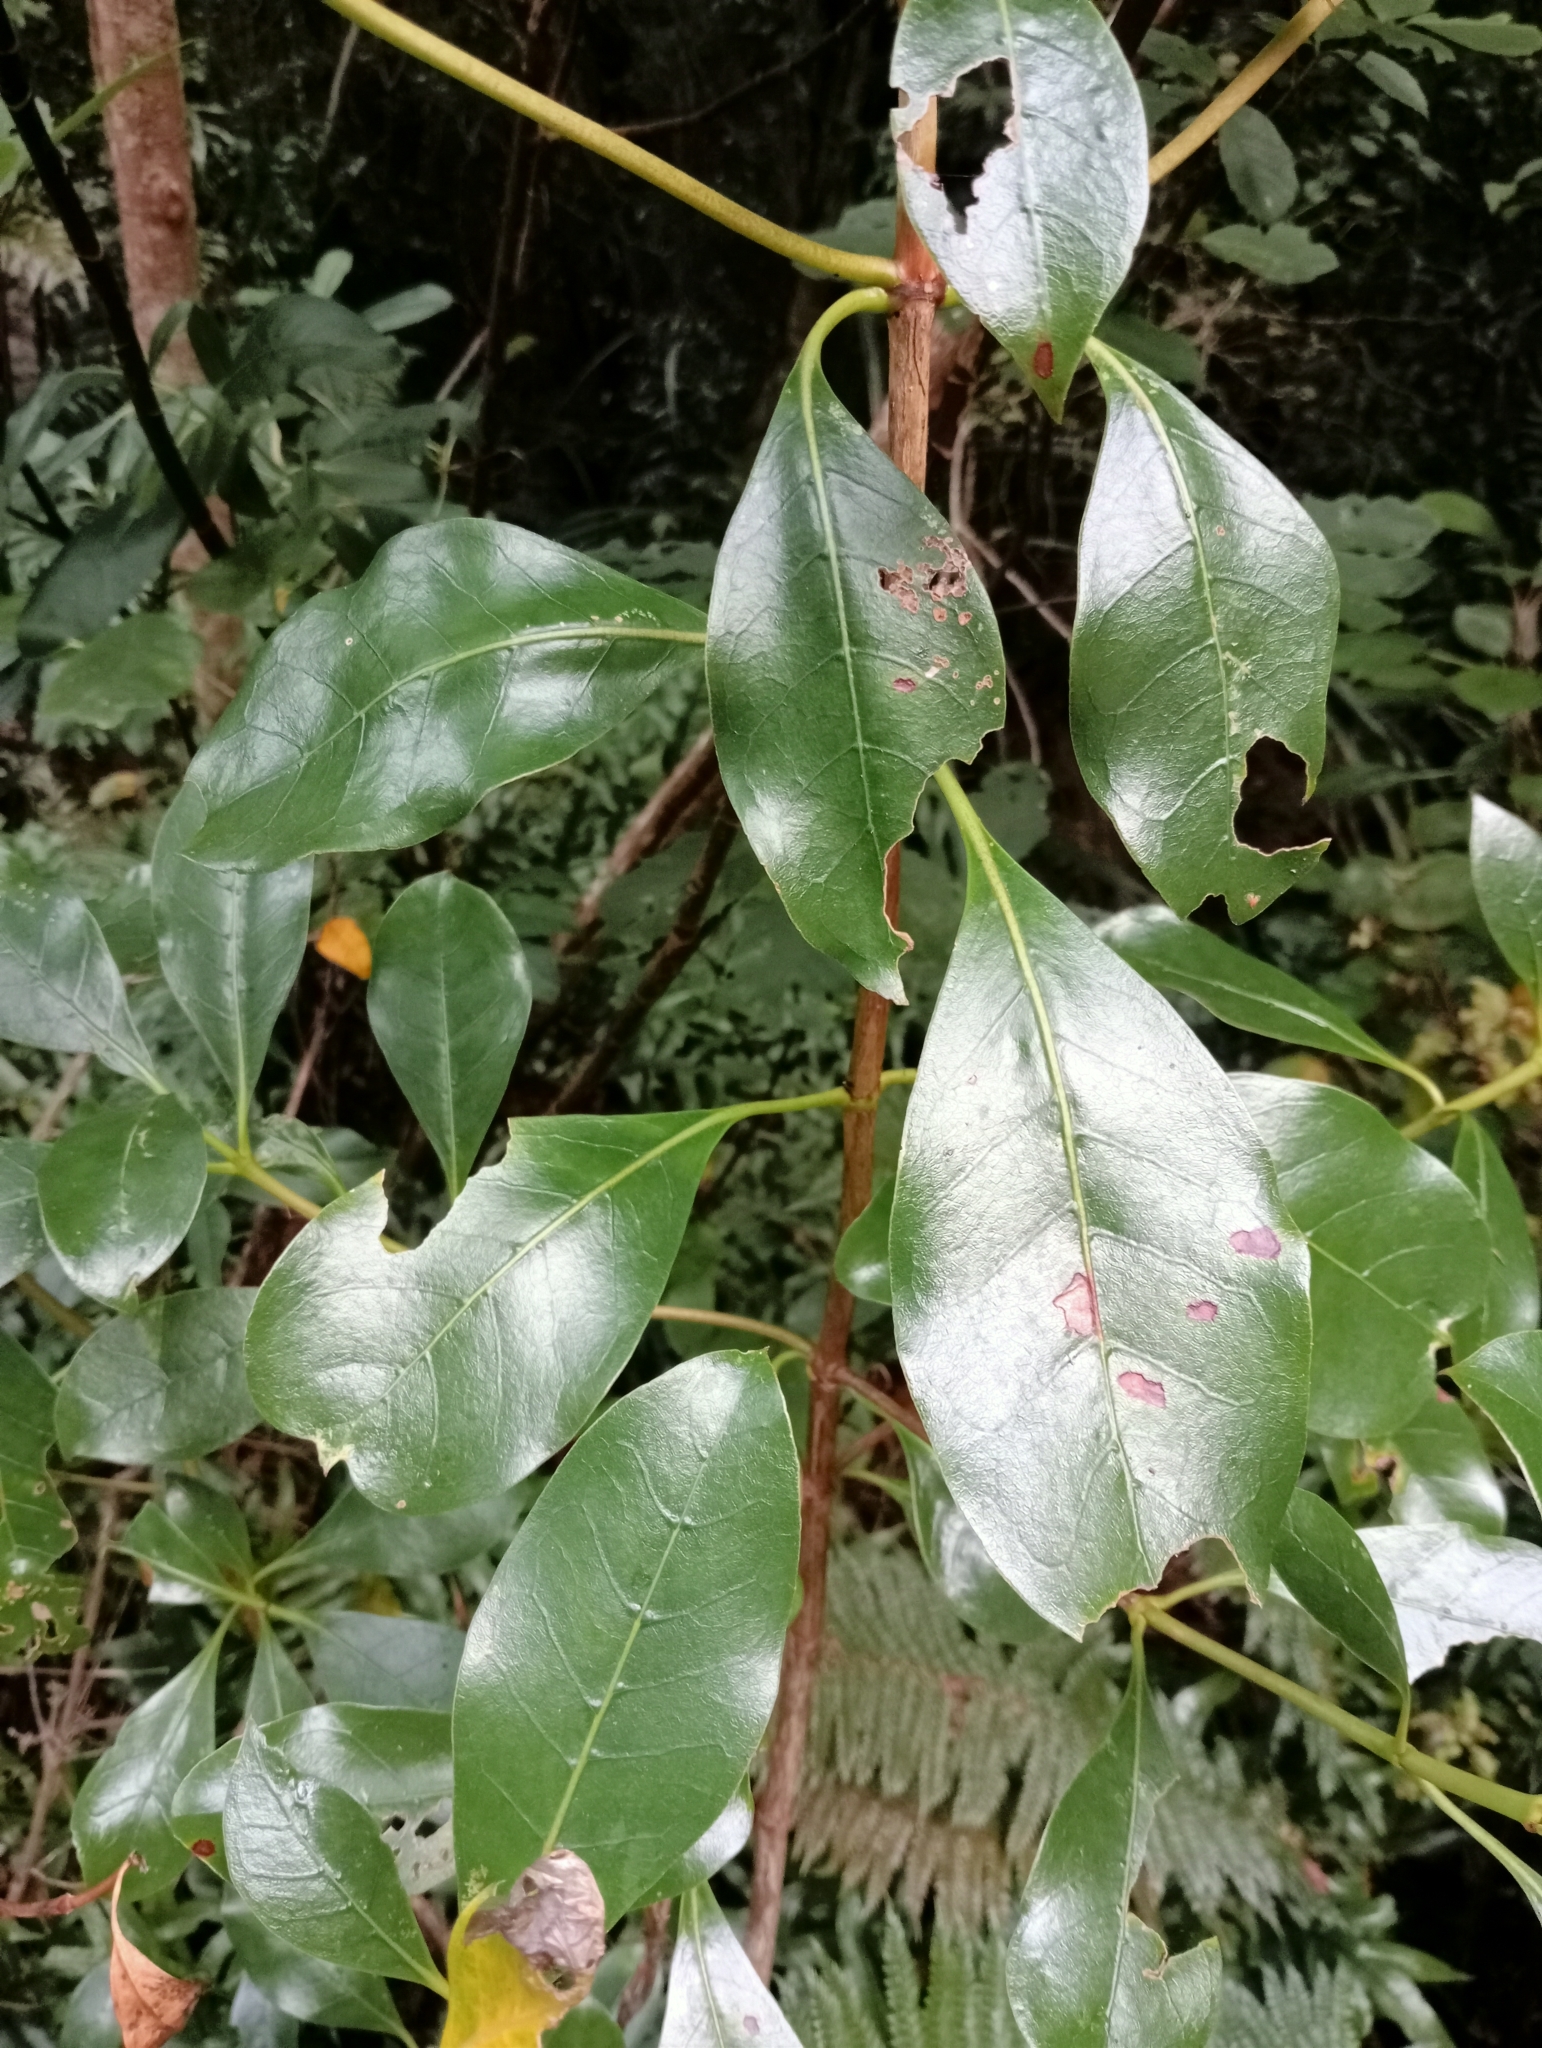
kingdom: Plantae
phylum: Tracheophyta
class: Magnoliopsida
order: Gentianales
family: Rubiaceae
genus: Coprosma
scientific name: Coprosma lucida
